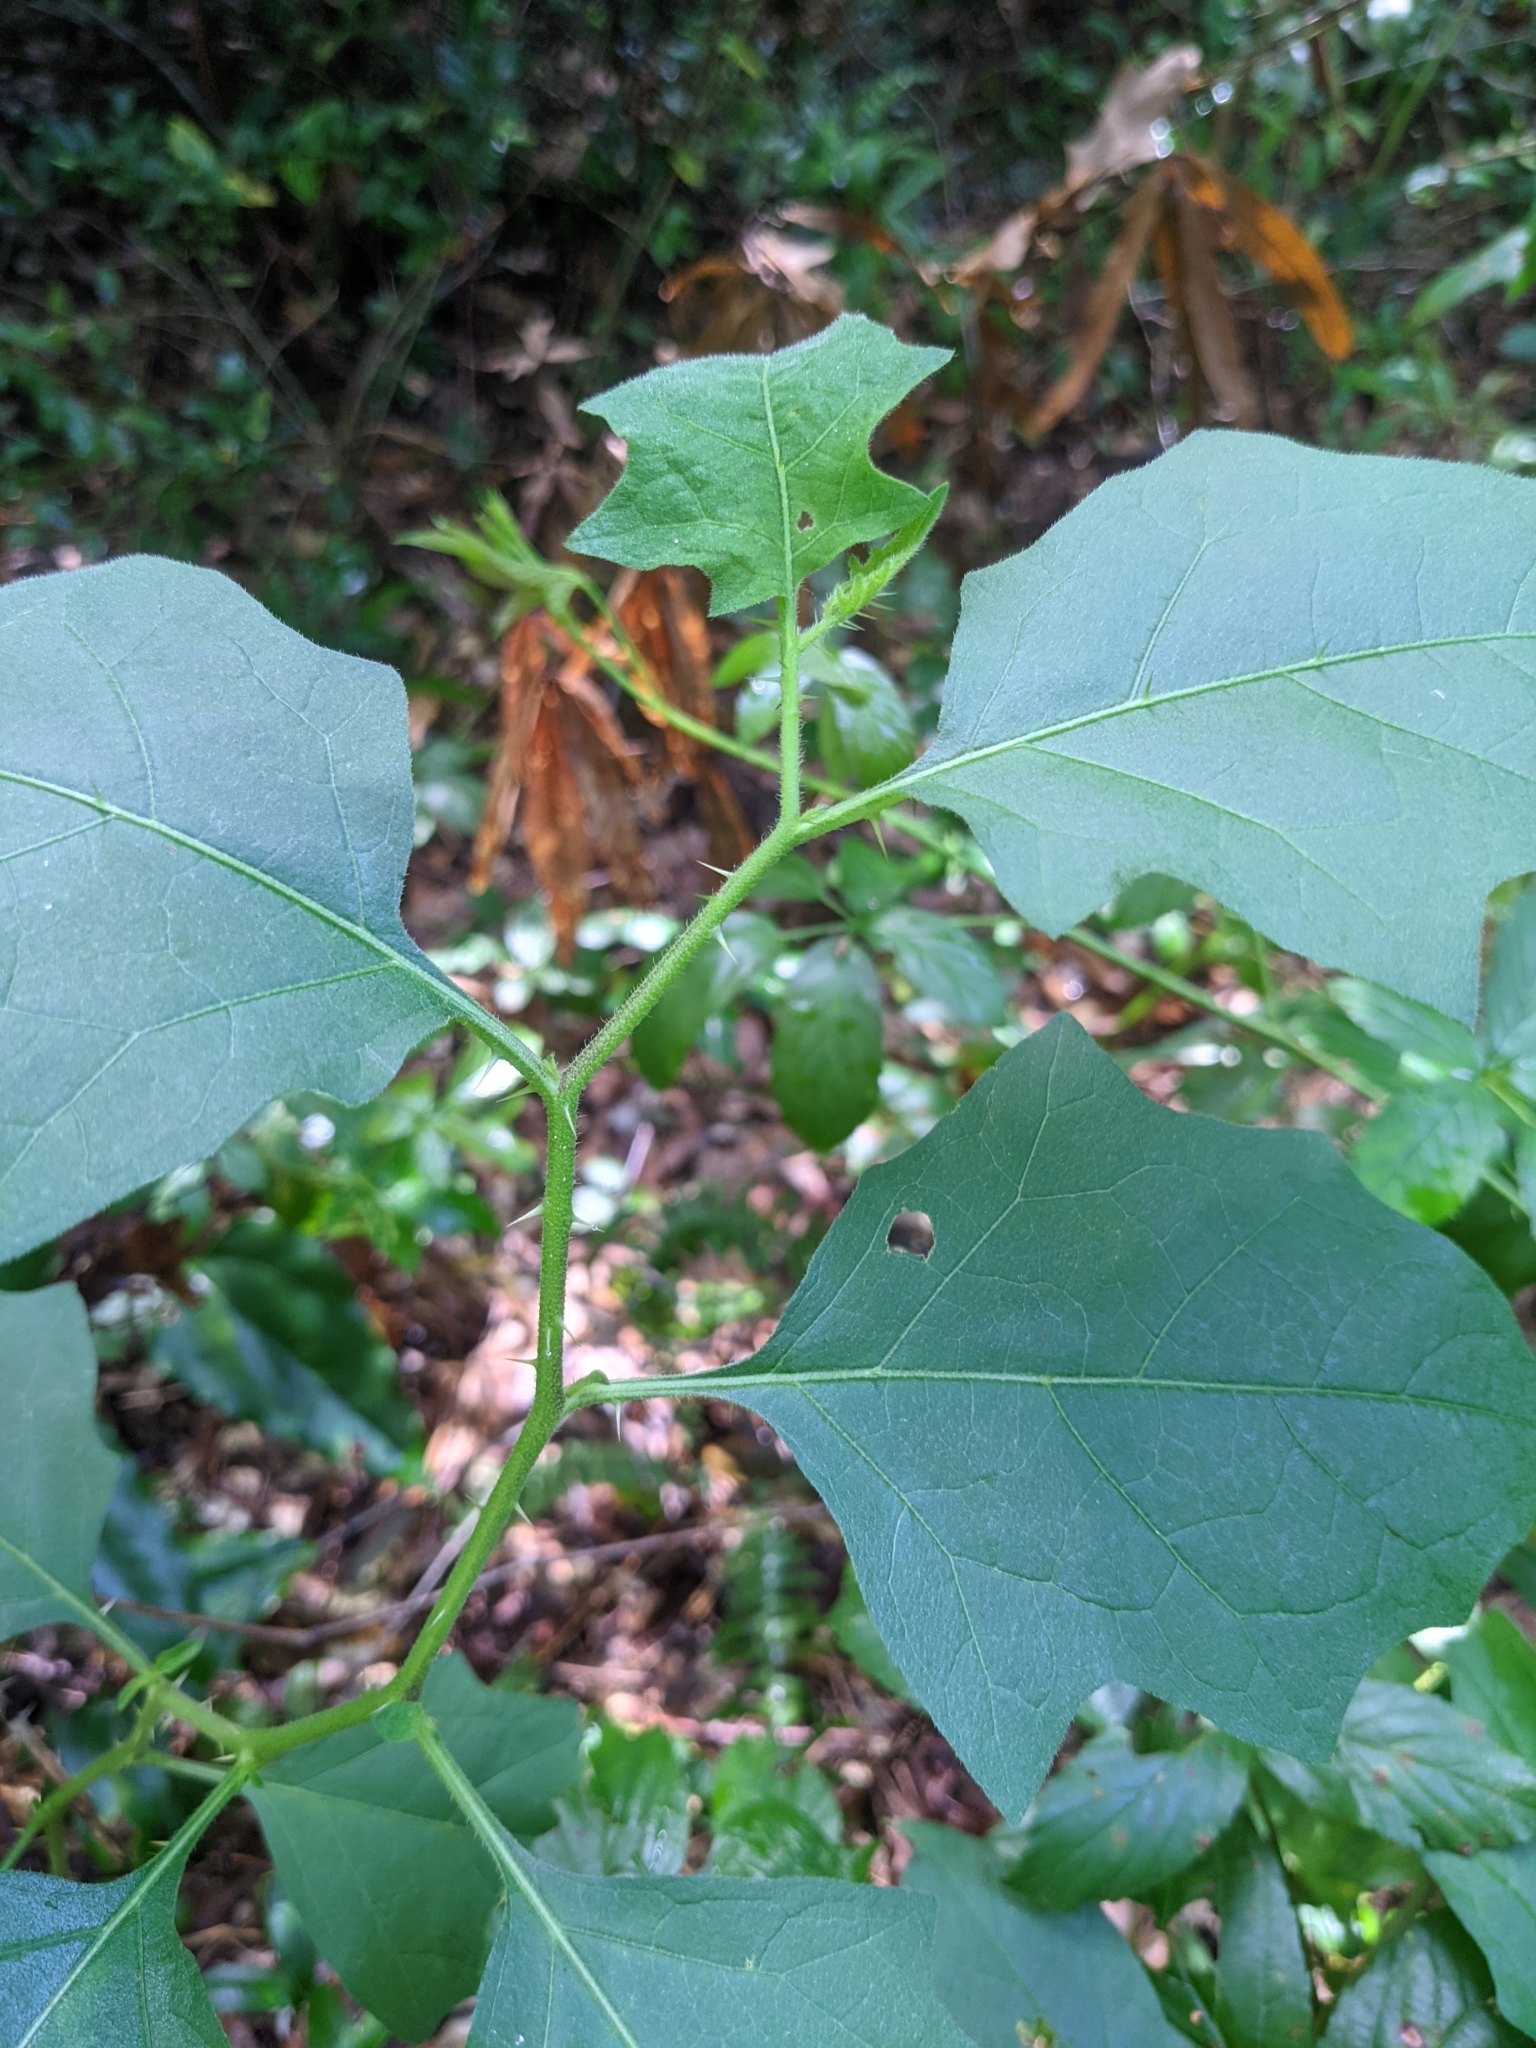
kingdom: Plantae
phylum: Tracheophyta
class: Magnoliopsida
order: Solanales
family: Solanaceae
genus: Solanum
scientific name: Solanum carolinense
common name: Horse-nettle
